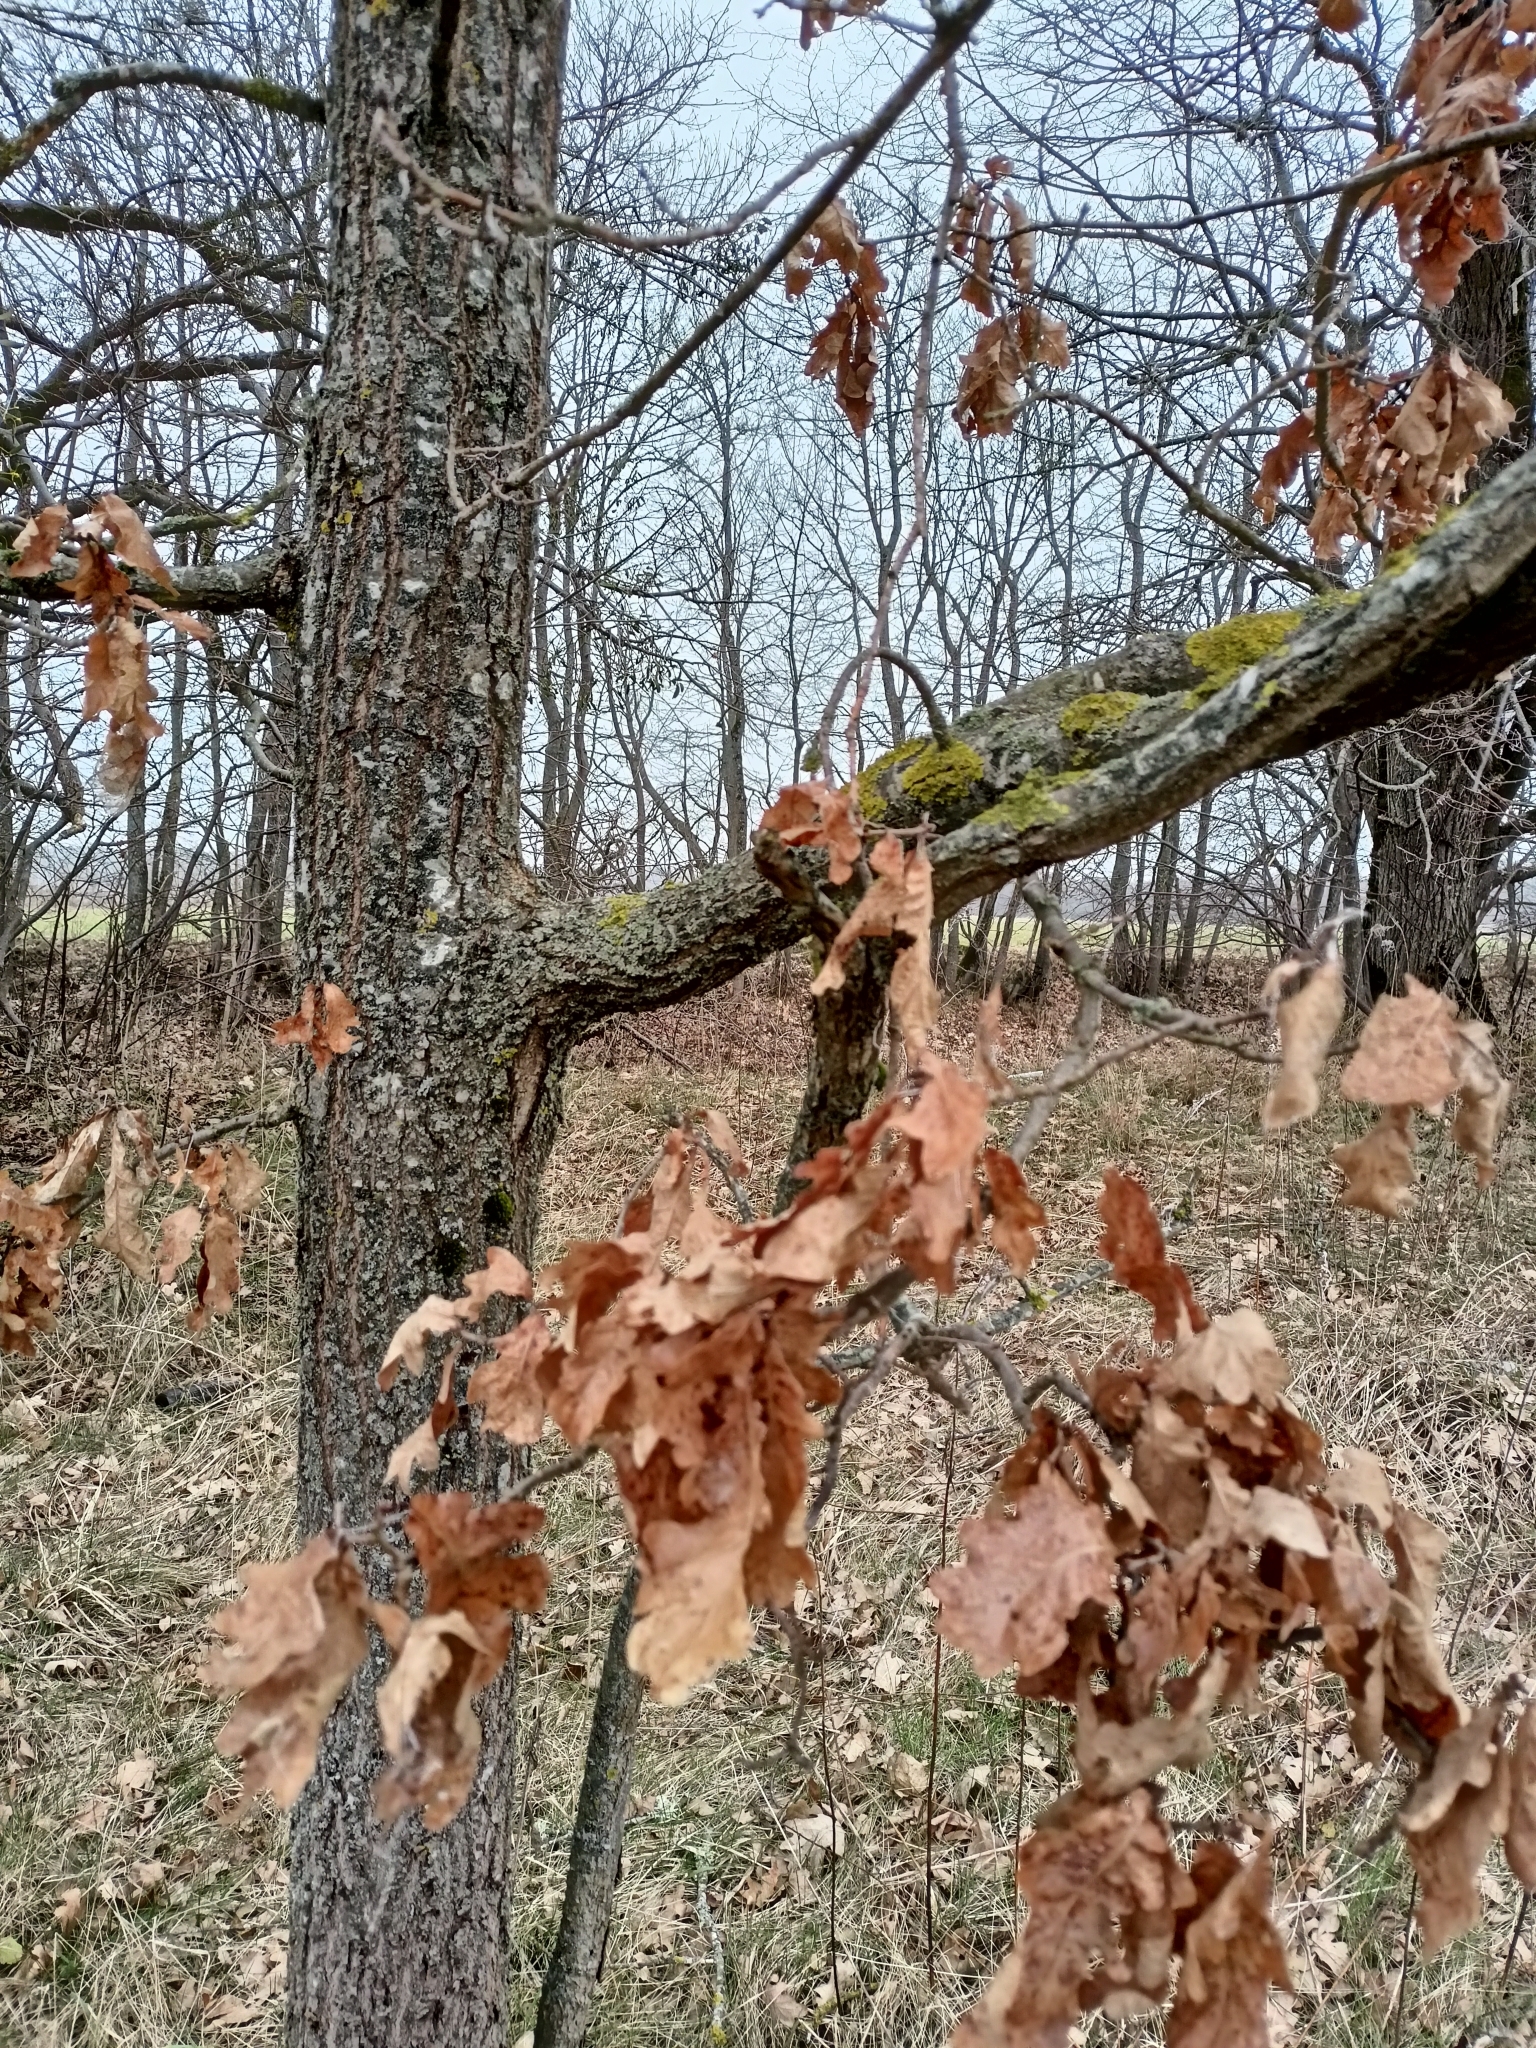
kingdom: Plantae
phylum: Tracheophyta
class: Magnoliopsida
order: Fagales
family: Fagaceae
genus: Quercus
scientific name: Quercus robur
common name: Pedunculate oak
